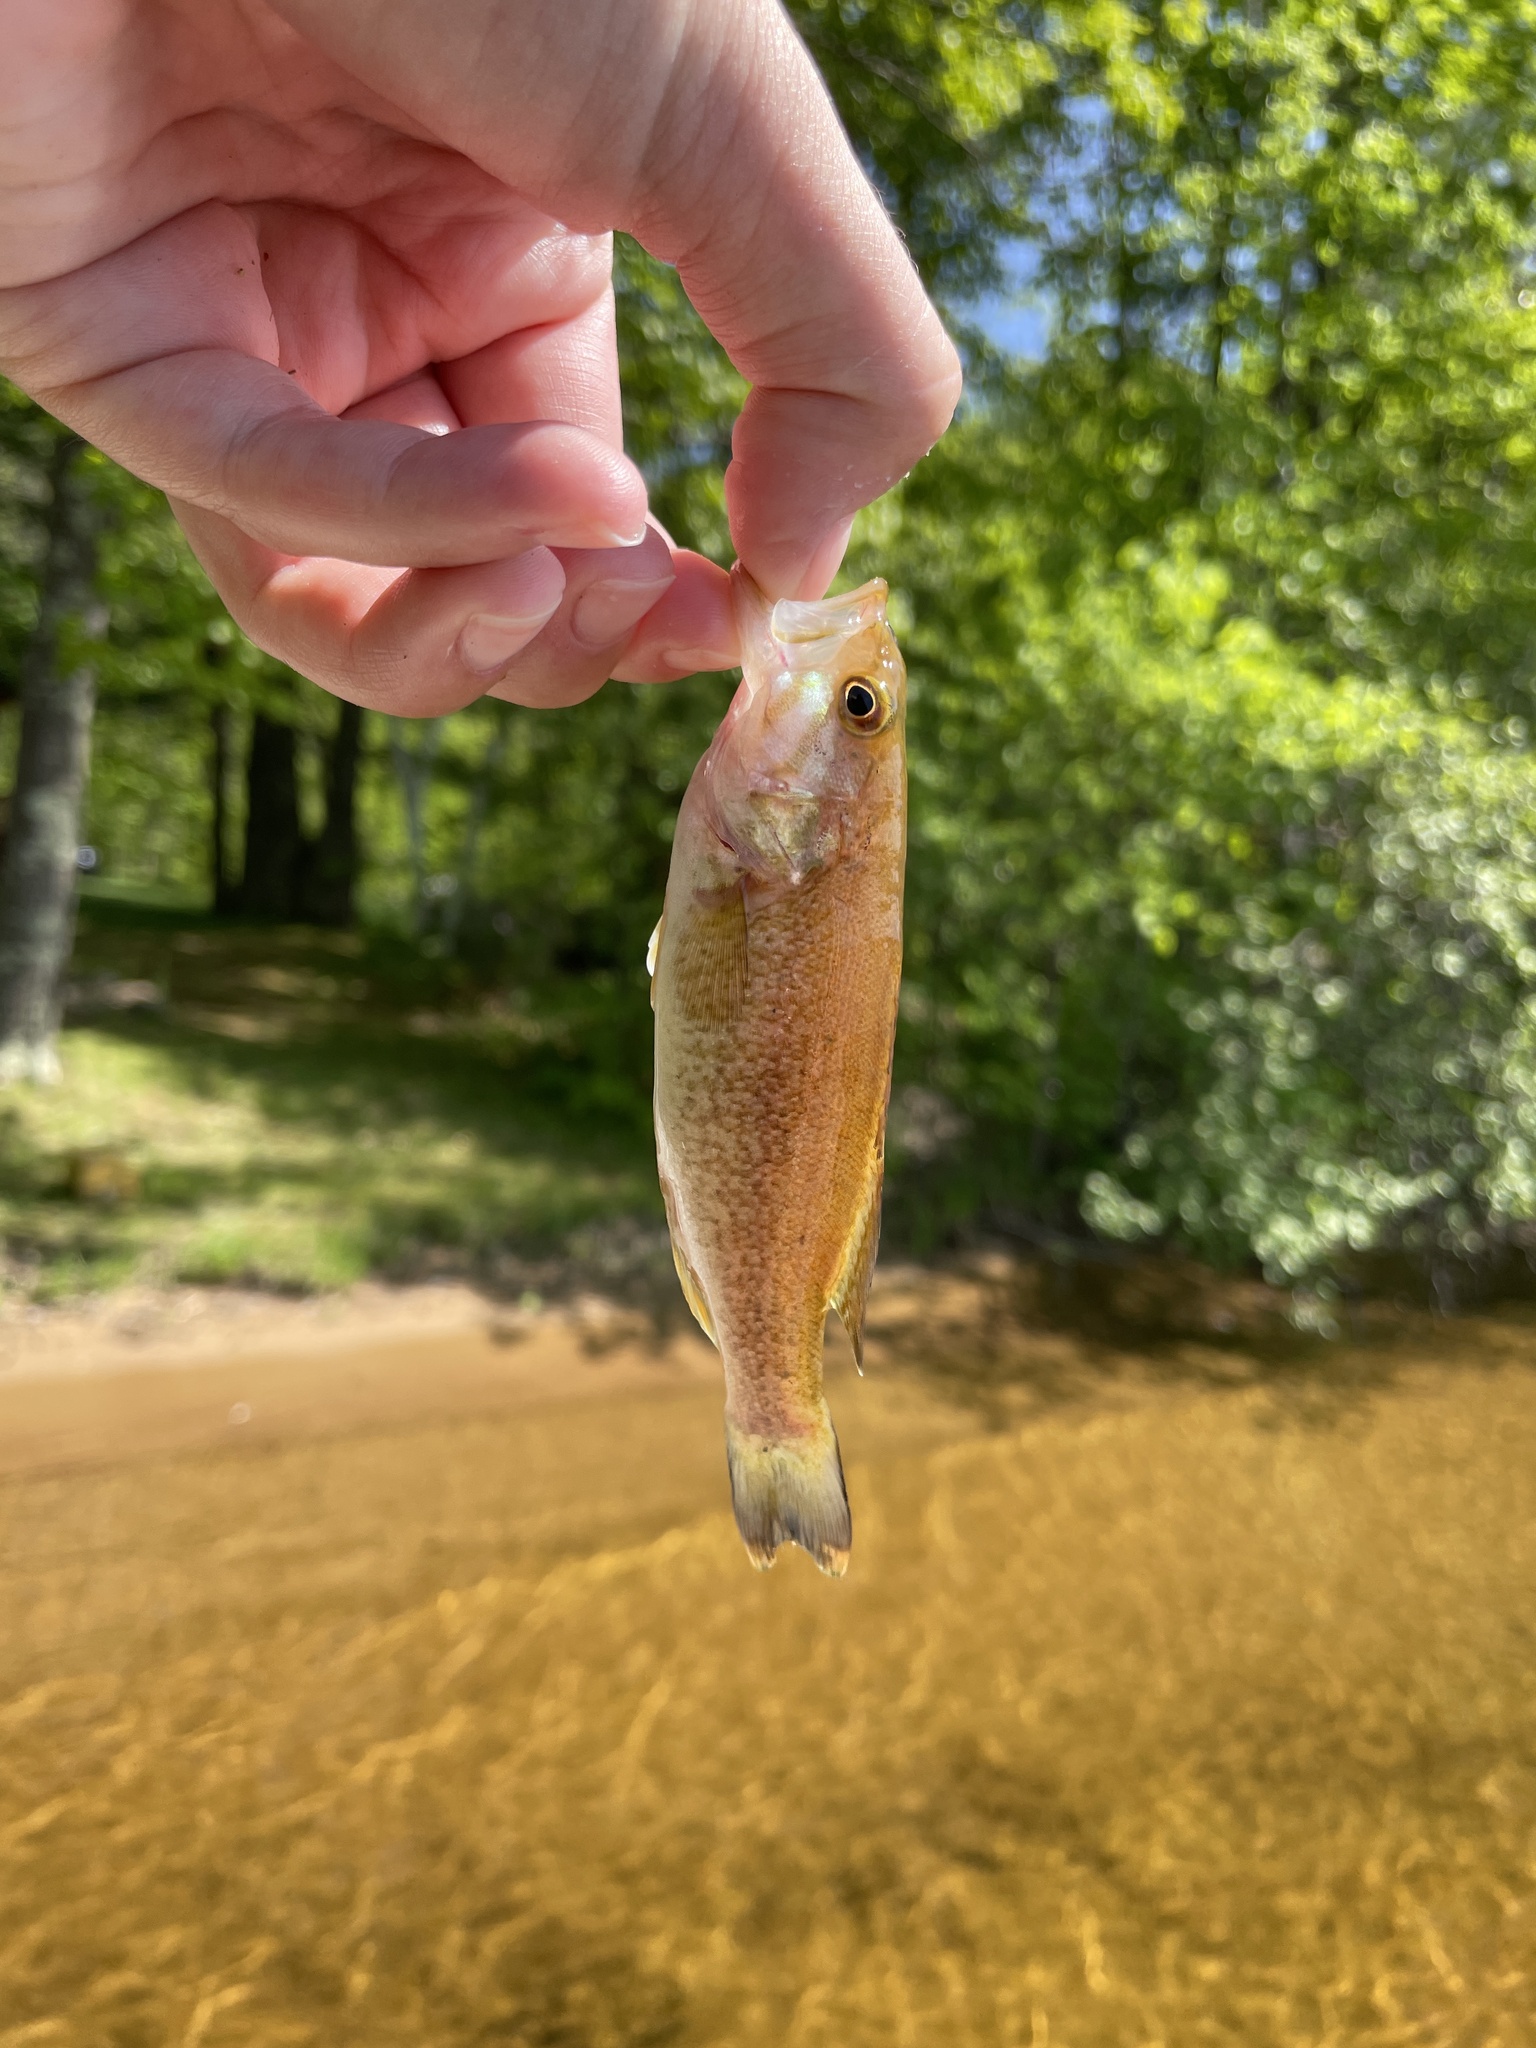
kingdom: Animalia
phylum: Chordata
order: Perciformes
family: Centrarchidae
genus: Micropterus
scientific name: Micropterus dolomieu
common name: Smallmouth bass
